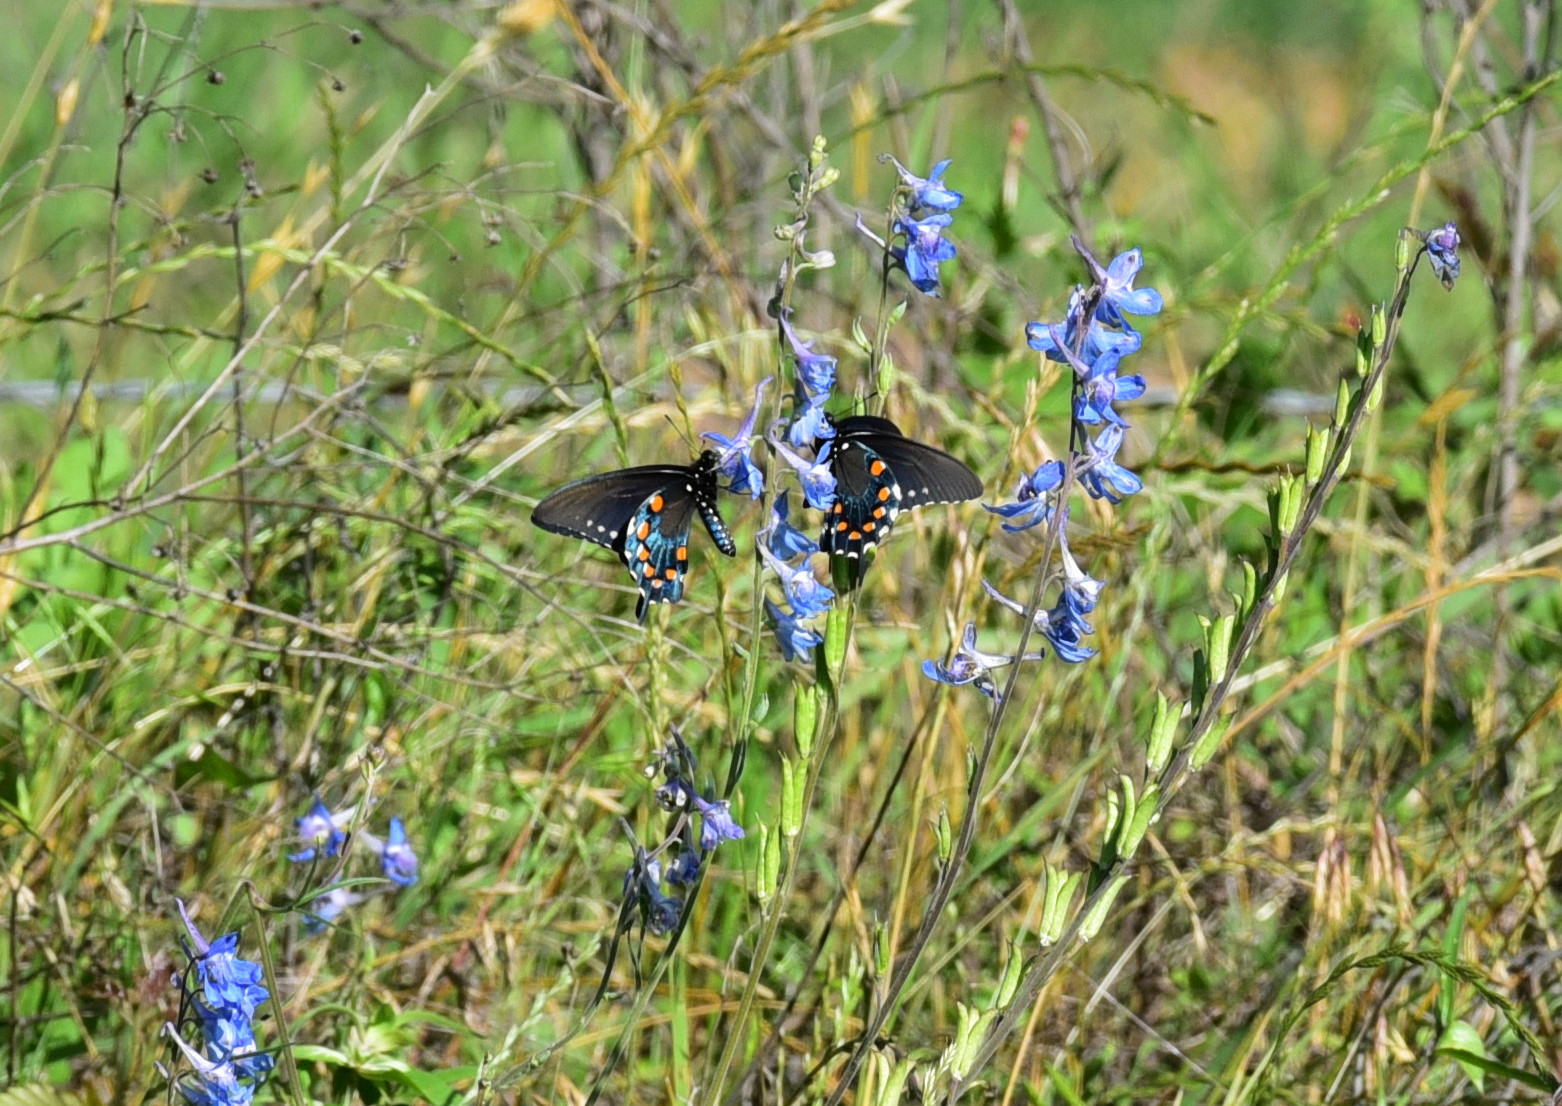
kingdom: Animalia
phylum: Arthropoda
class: Insecta
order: Lepidoptera
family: Papilionidae
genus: Battus
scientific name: Battus philenor
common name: Pipevine swallowtail
